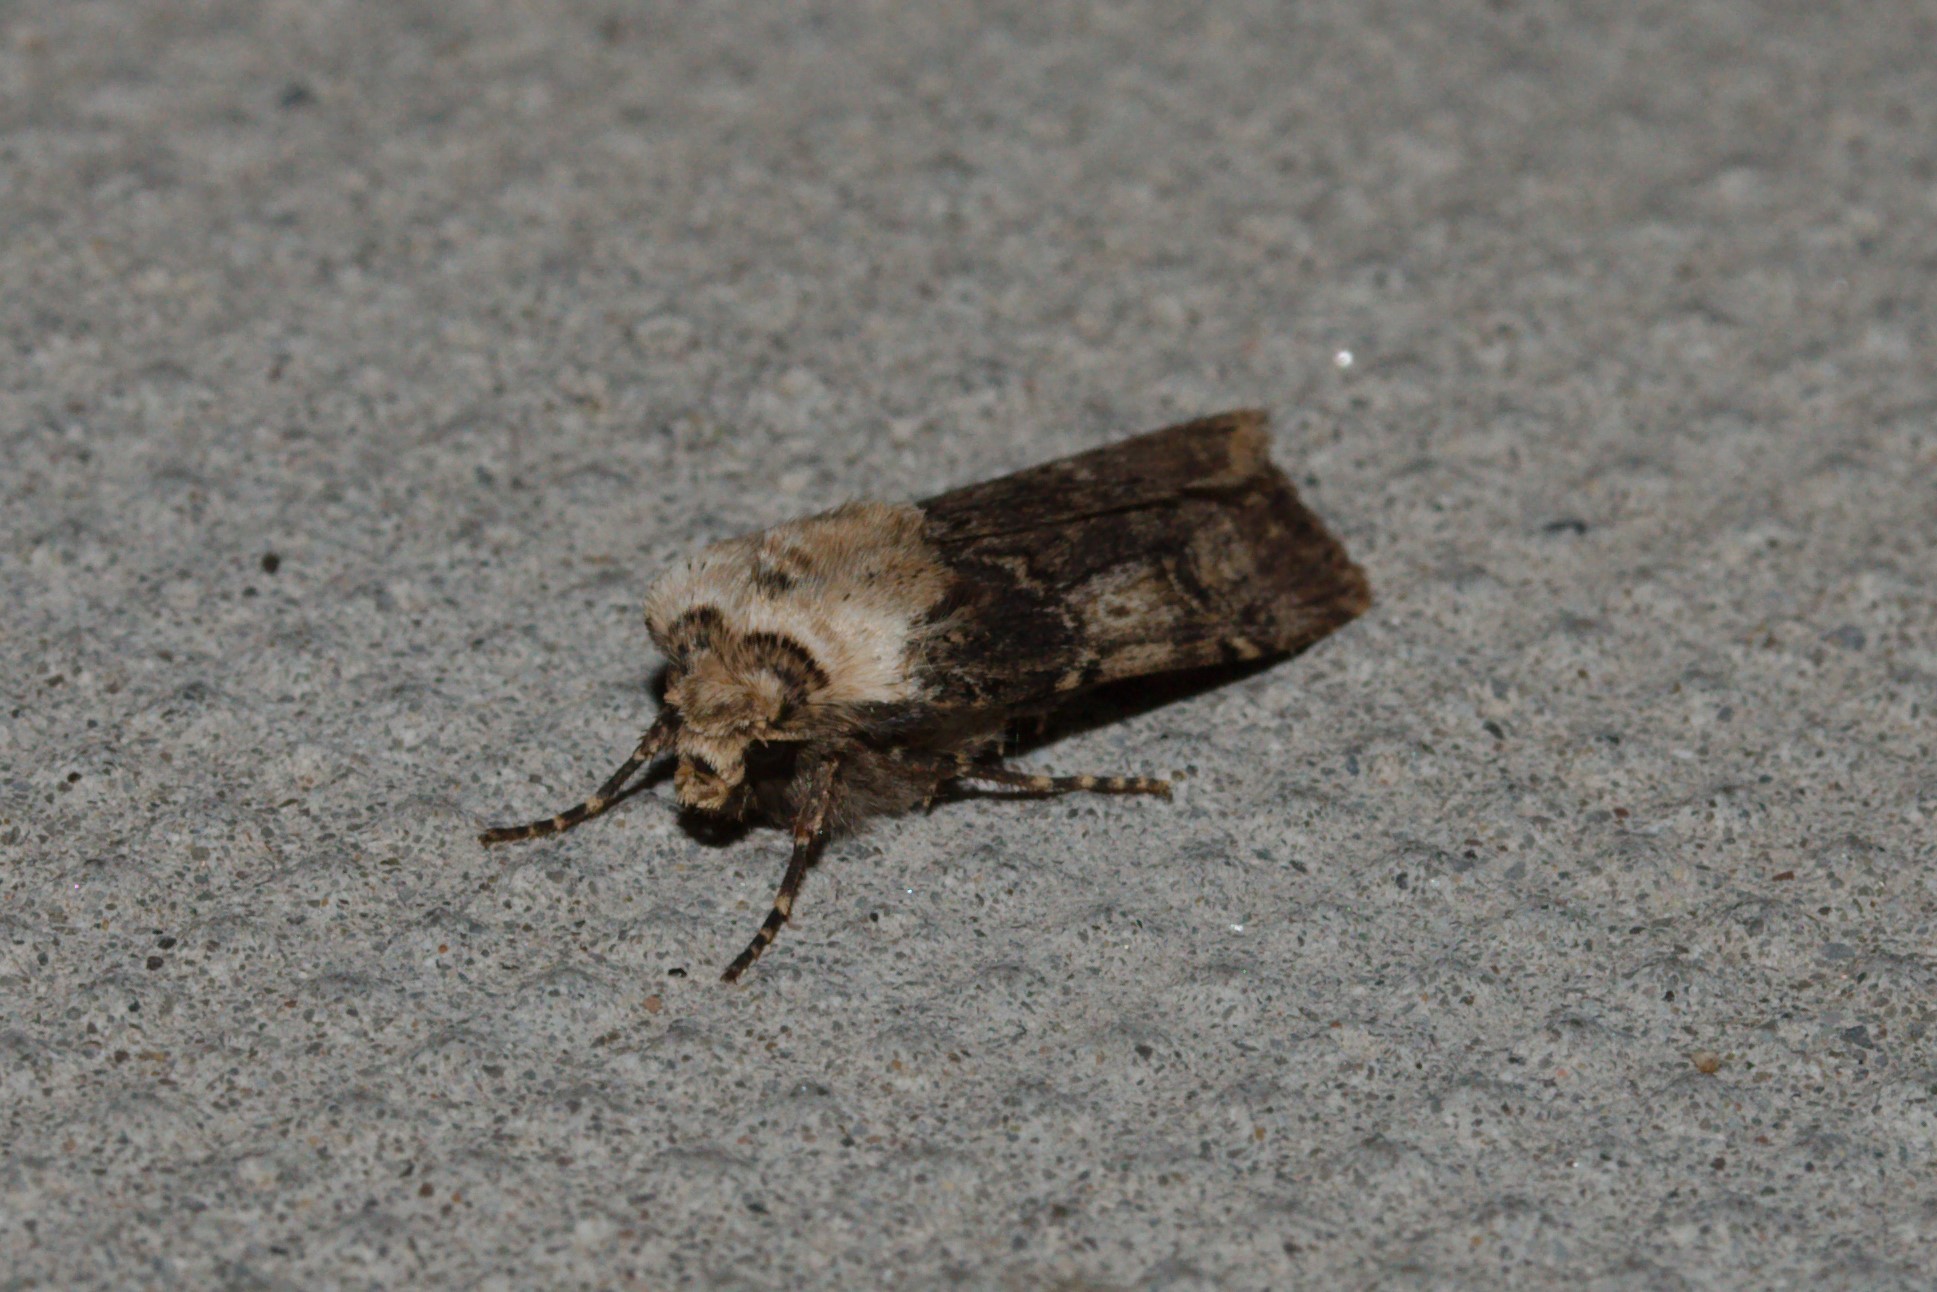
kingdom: Animalia
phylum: Arthropoda
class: Insecta
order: Lepidoptera
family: Noctuidae
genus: Agrotis
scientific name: Agrotis puta
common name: Shuttle-shaped dart
